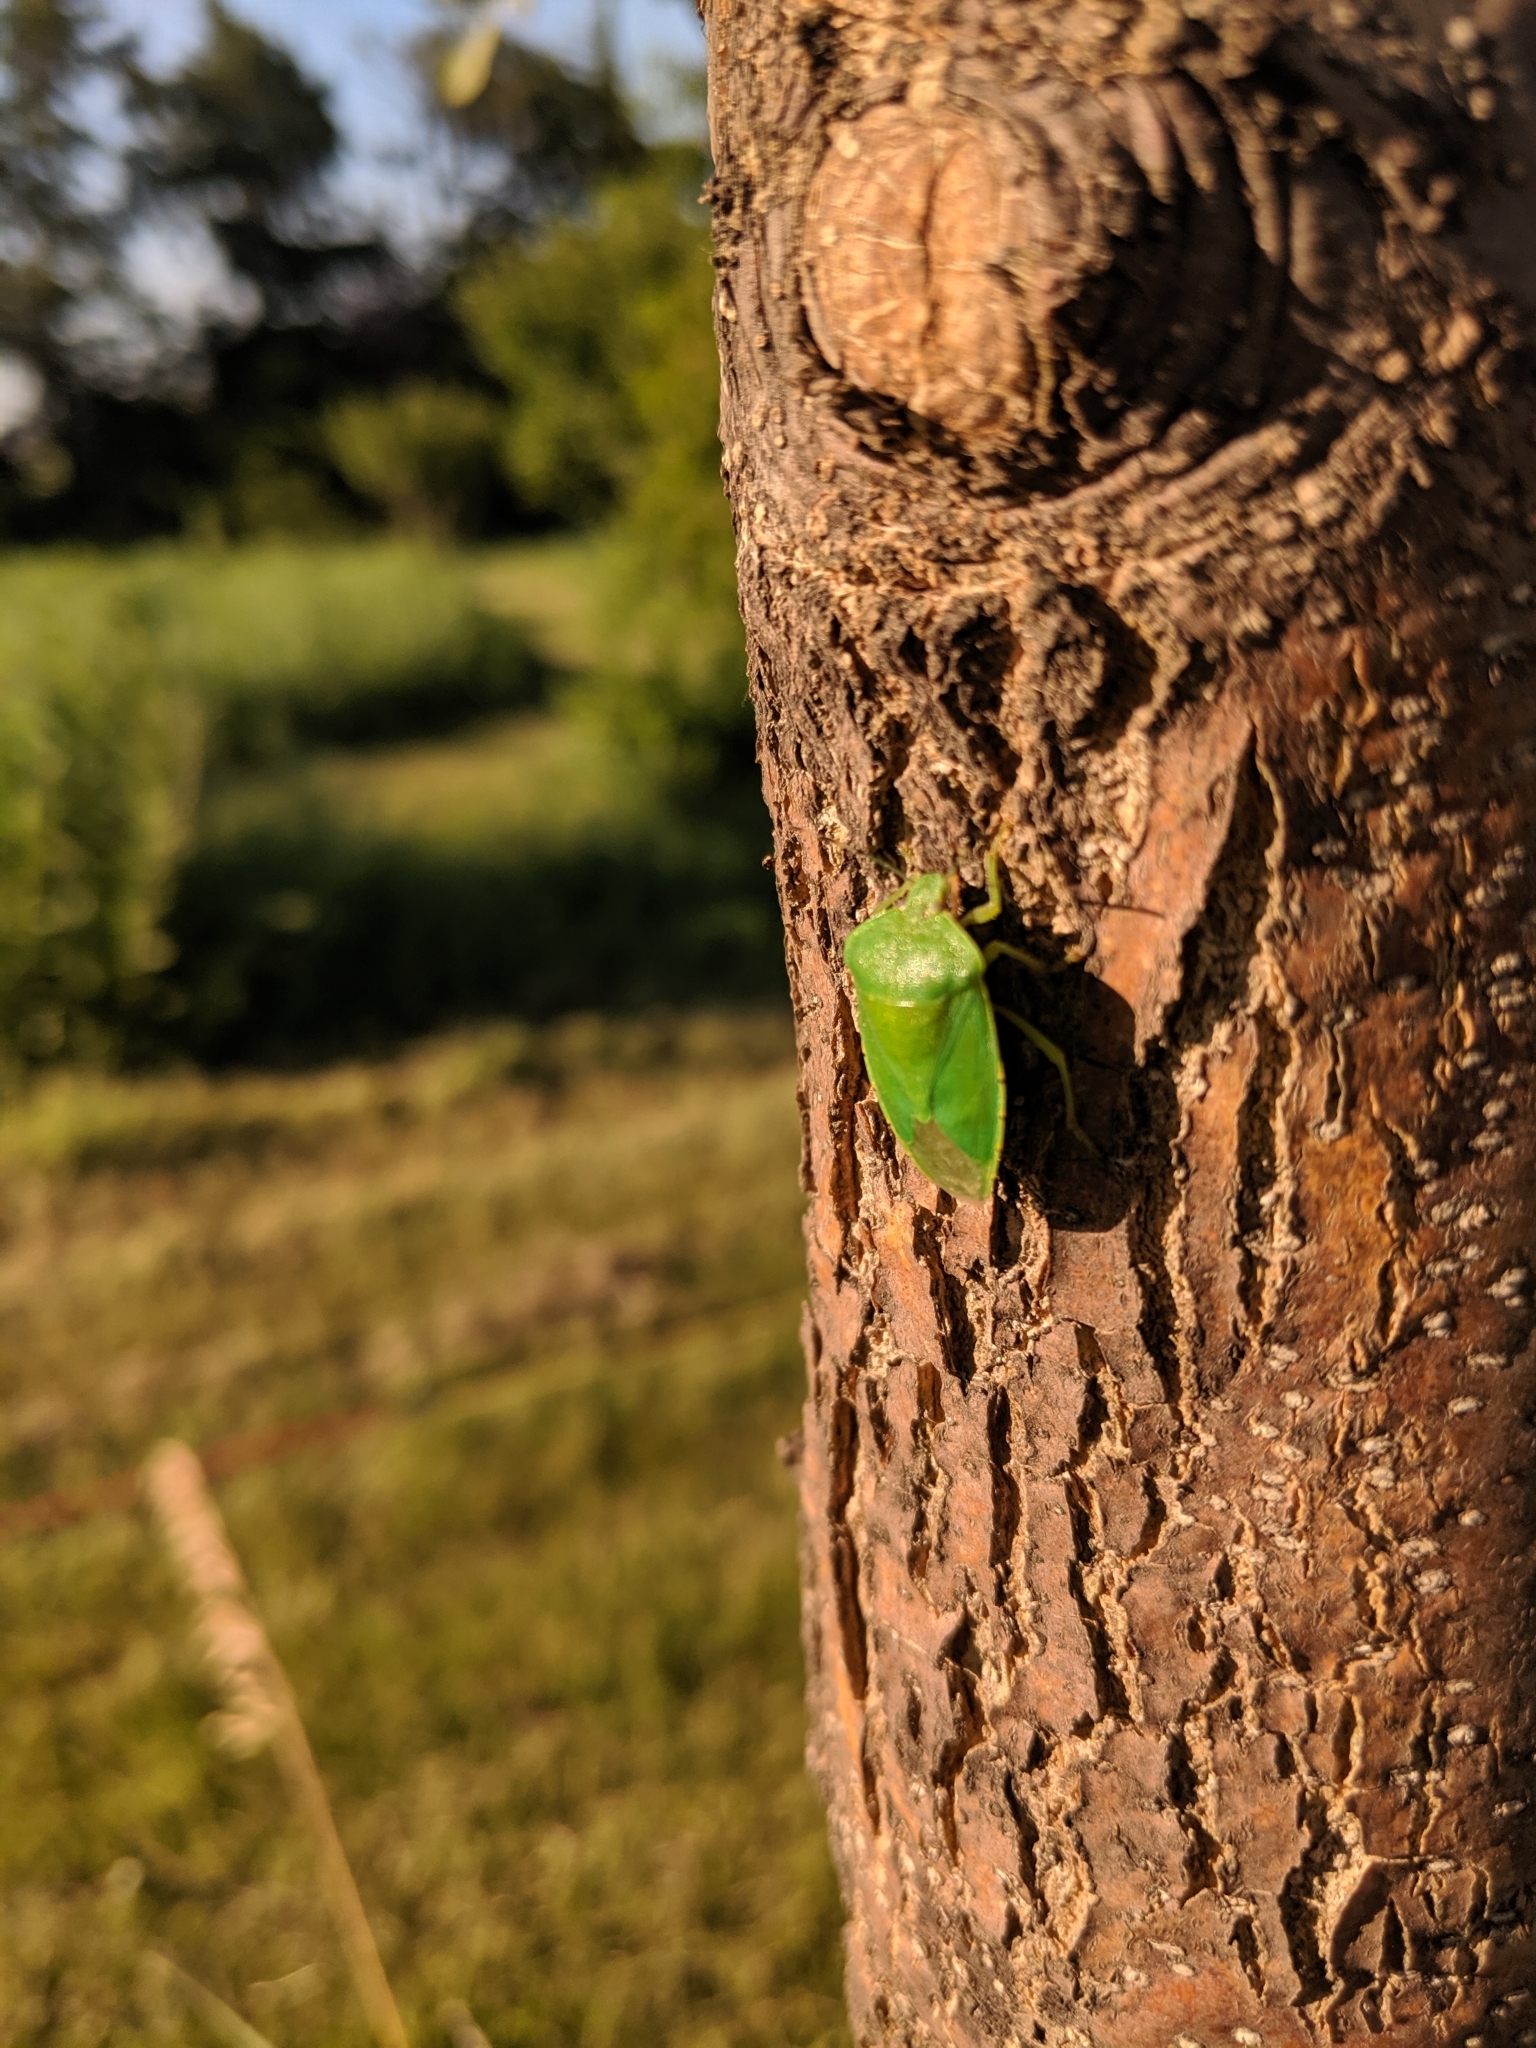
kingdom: Animalia
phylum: Arthropoda
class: Insecta
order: Hemiptera
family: Pentatomidae
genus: Chinavia
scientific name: Chinavia hilaris
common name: Green stink bug
